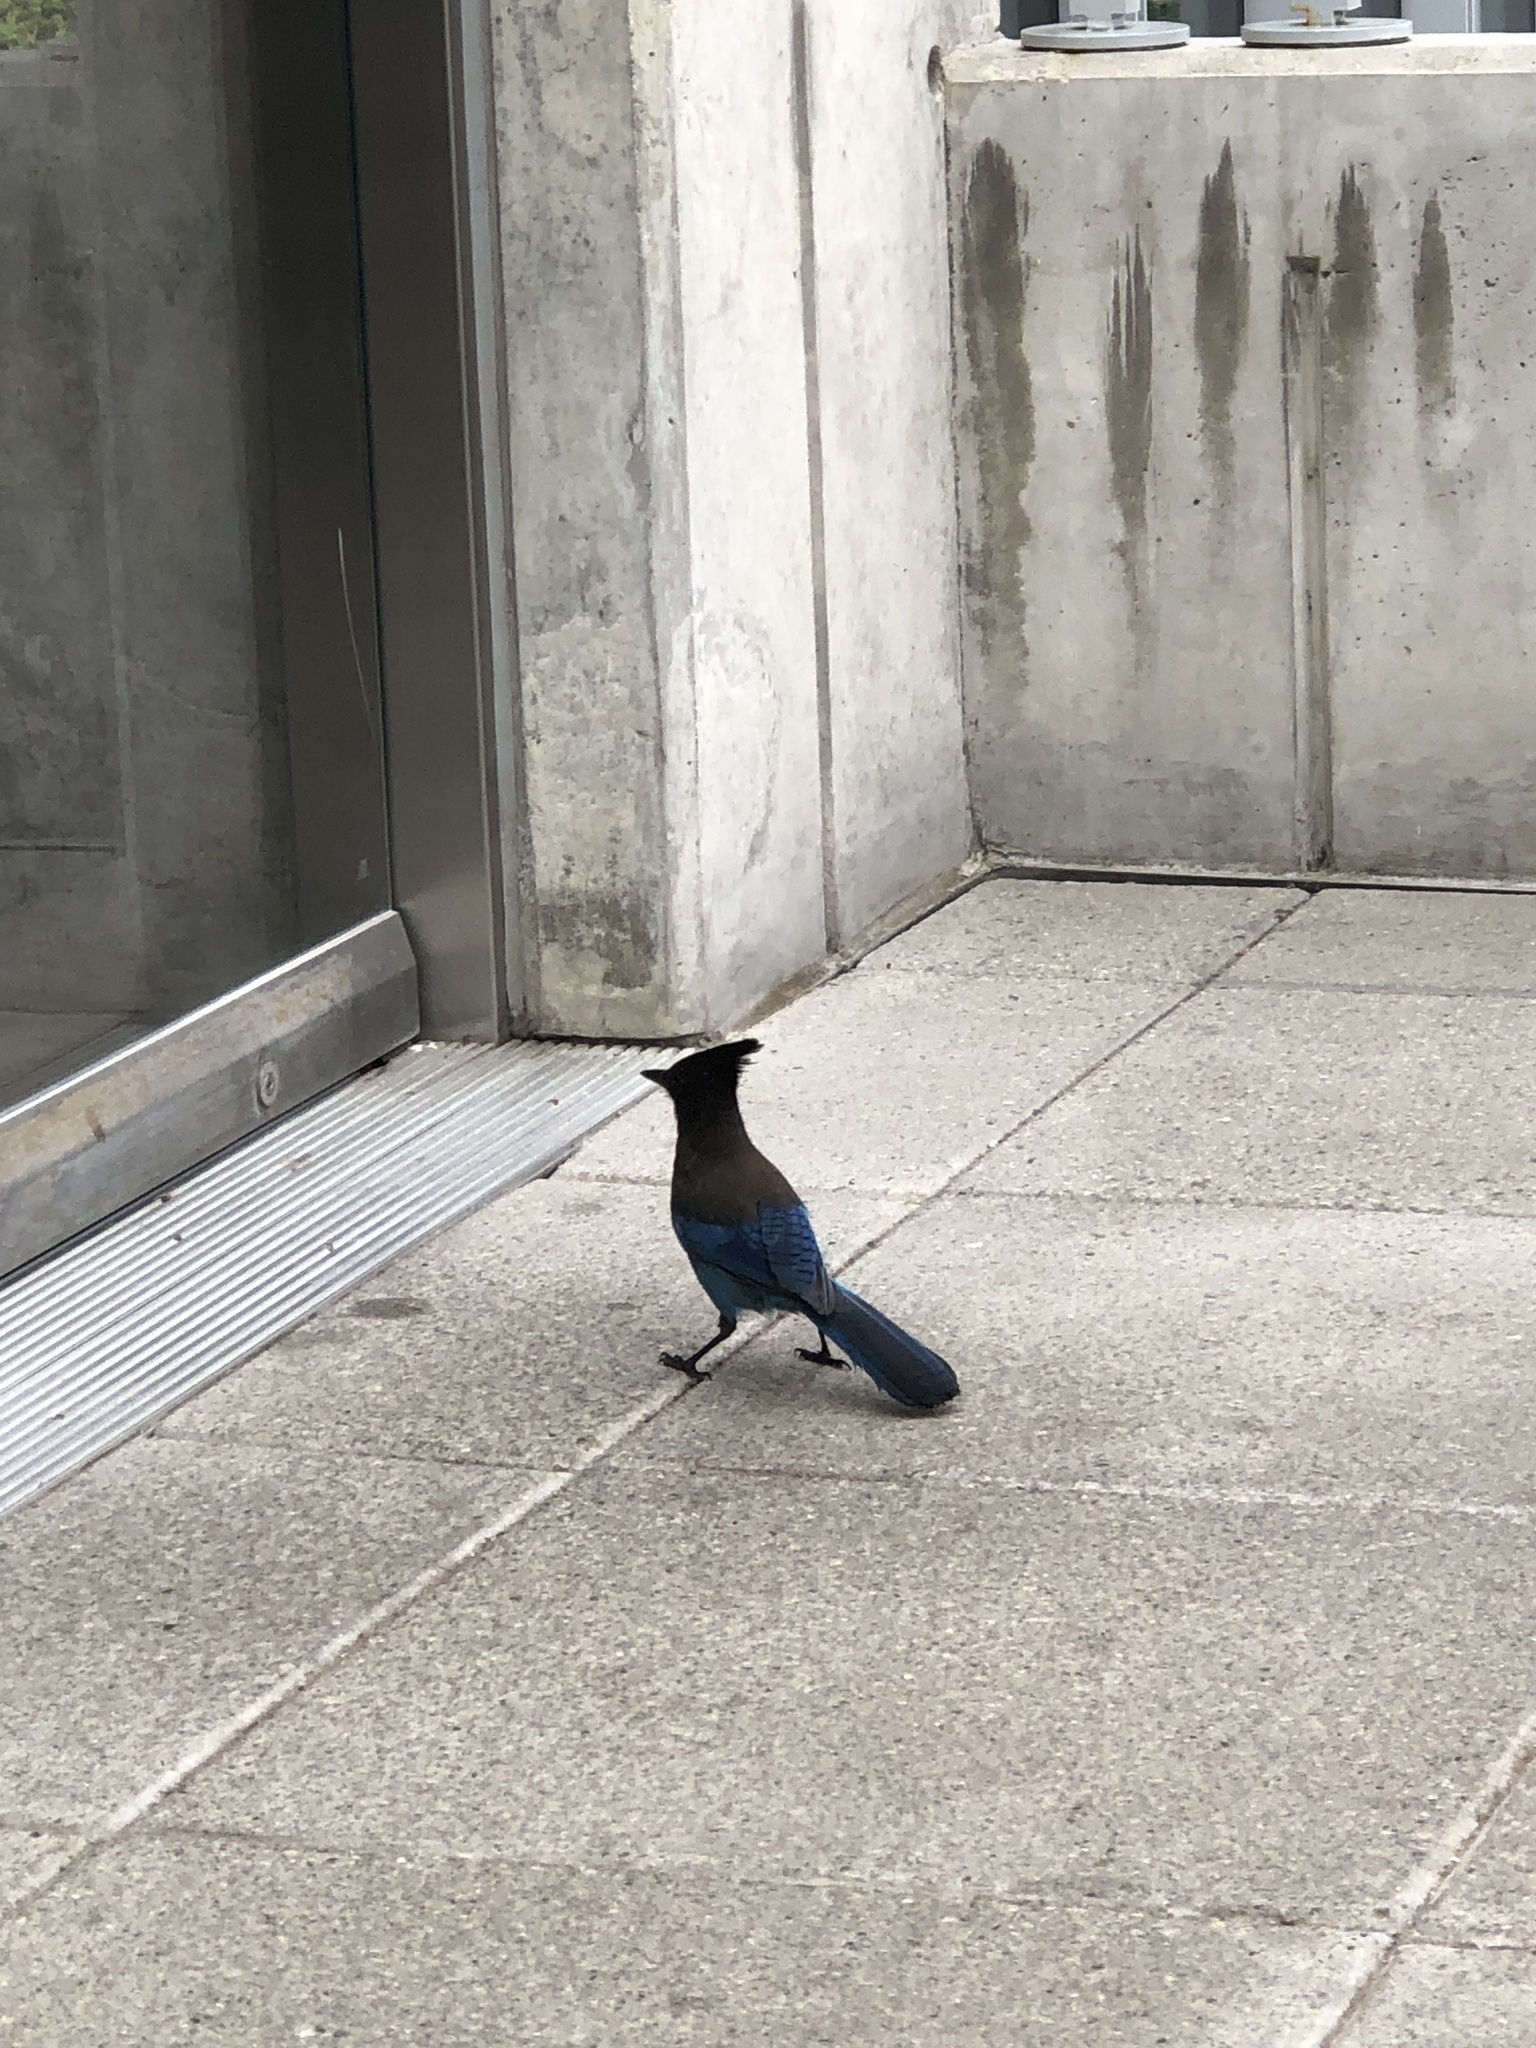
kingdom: Animalia
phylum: Chordata
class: Aves
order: Passeriformes
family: Corvidae
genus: Cyanocitta
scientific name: Cyanocitta stelleri
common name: Steller's jay
